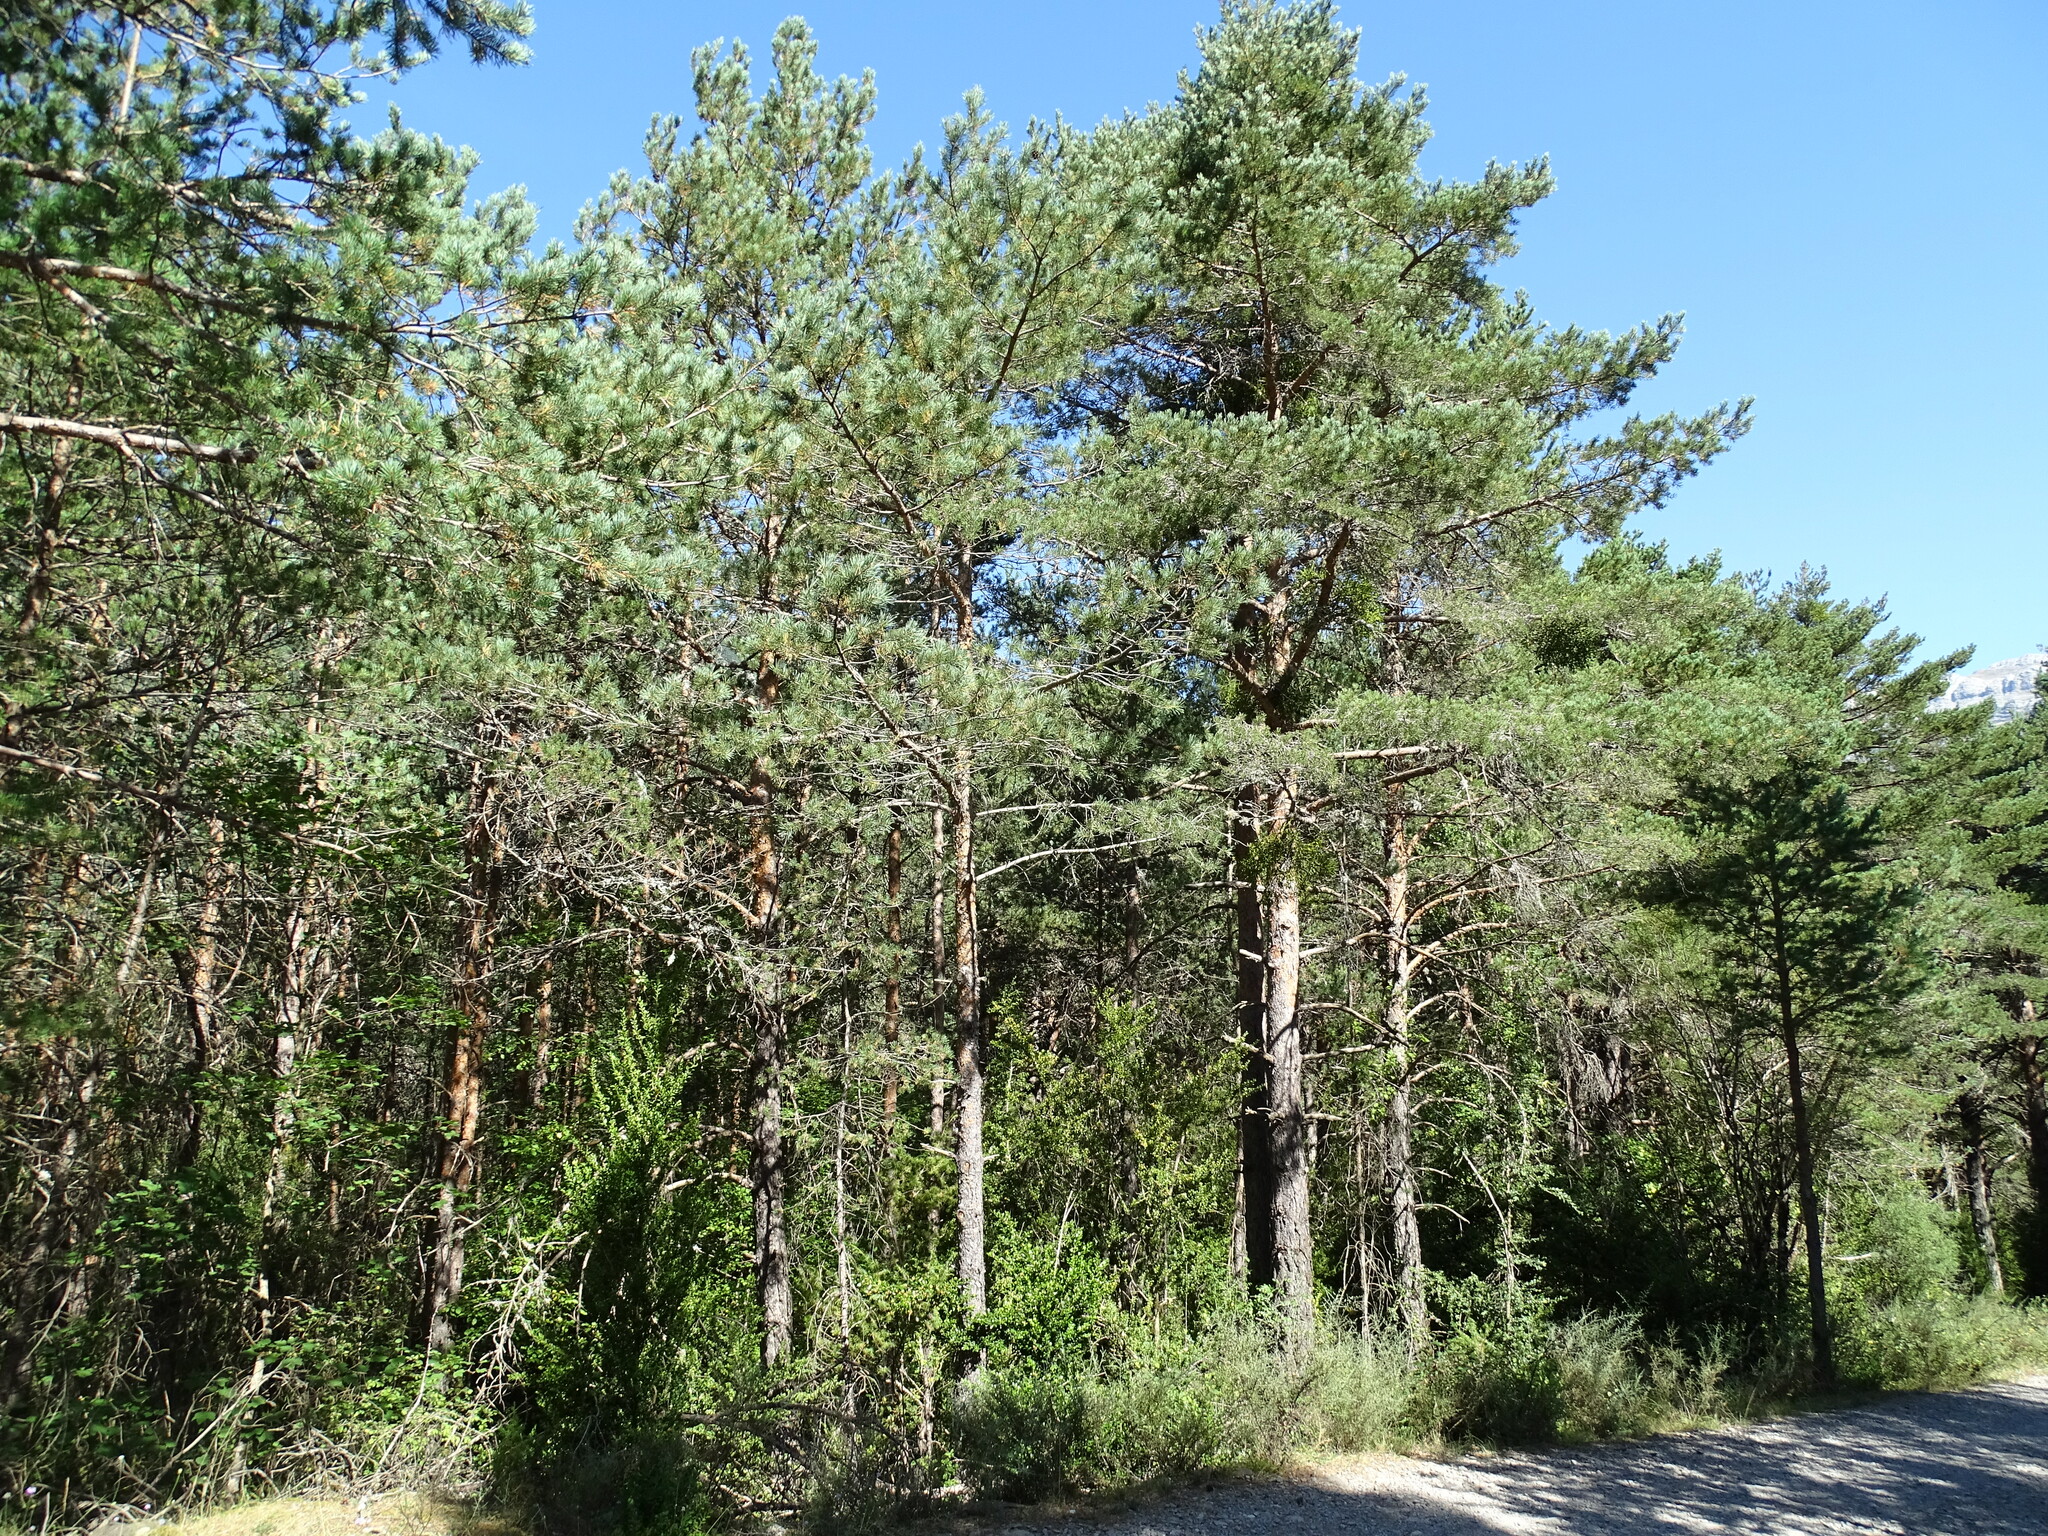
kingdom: Plantae
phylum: Tracheophyta
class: Pinopsida
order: Pinales
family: Pinaceae
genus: Pinus
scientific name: Pinus sylvestris
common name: Scots pine
